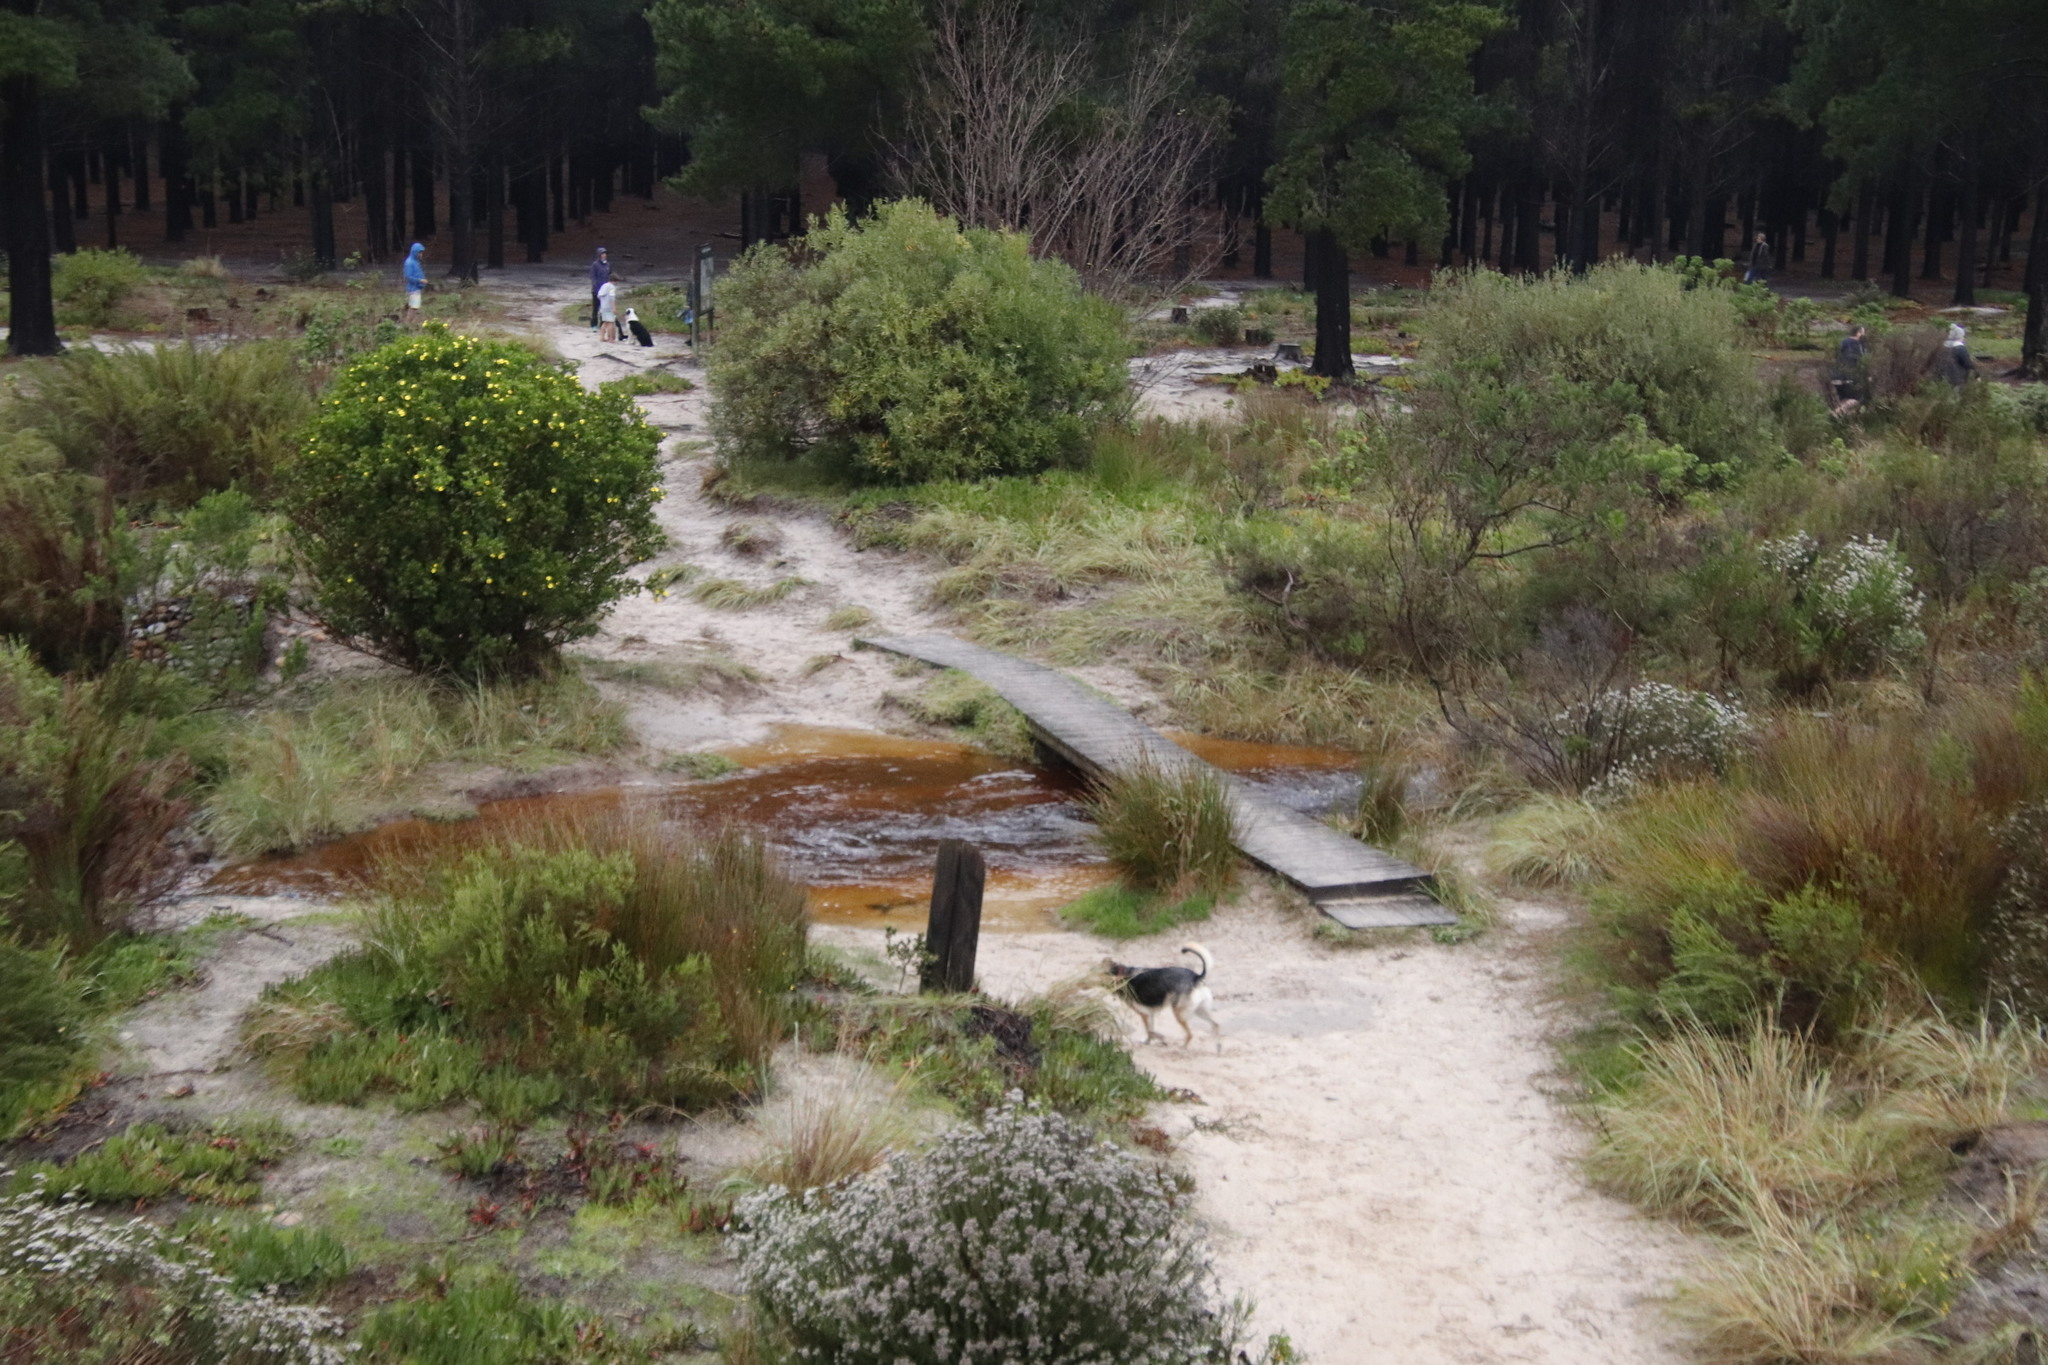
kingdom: Plantae
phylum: Tracheophyta
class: Magnoliopsida
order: Lamiales
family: Oleaceae
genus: Olea
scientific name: Olea europaea
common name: Olive
